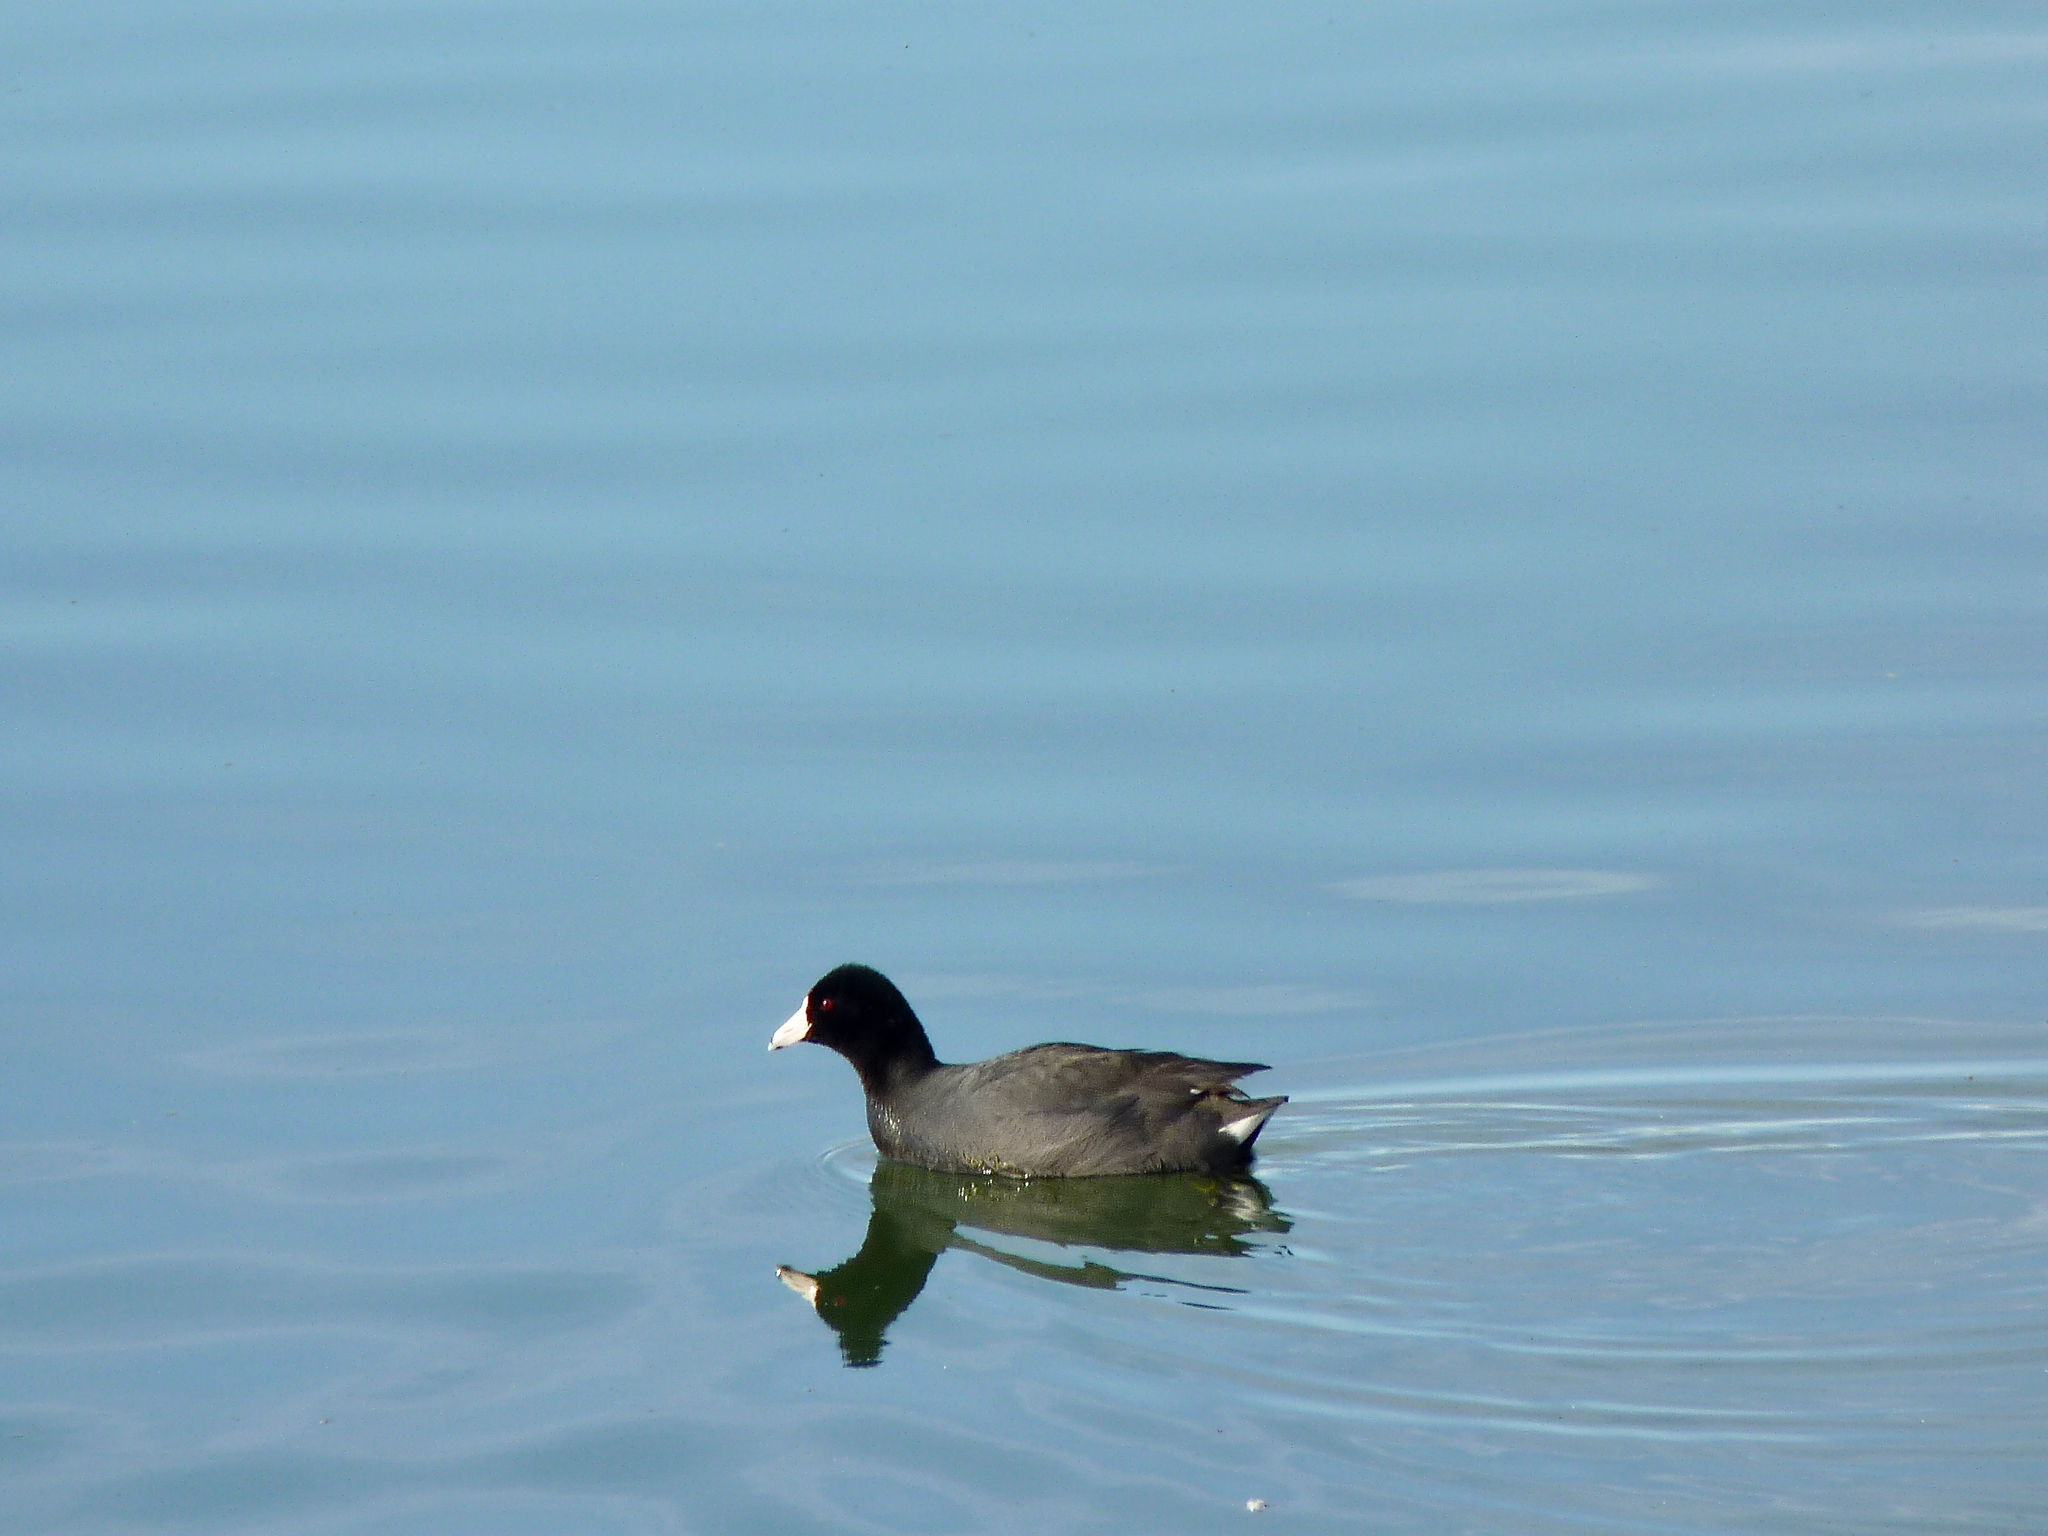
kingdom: Animalia
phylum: Chordata
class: Aves
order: Gruiformes
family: Rallidae
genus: Fulica
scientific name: Fulica americana
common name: American coot
